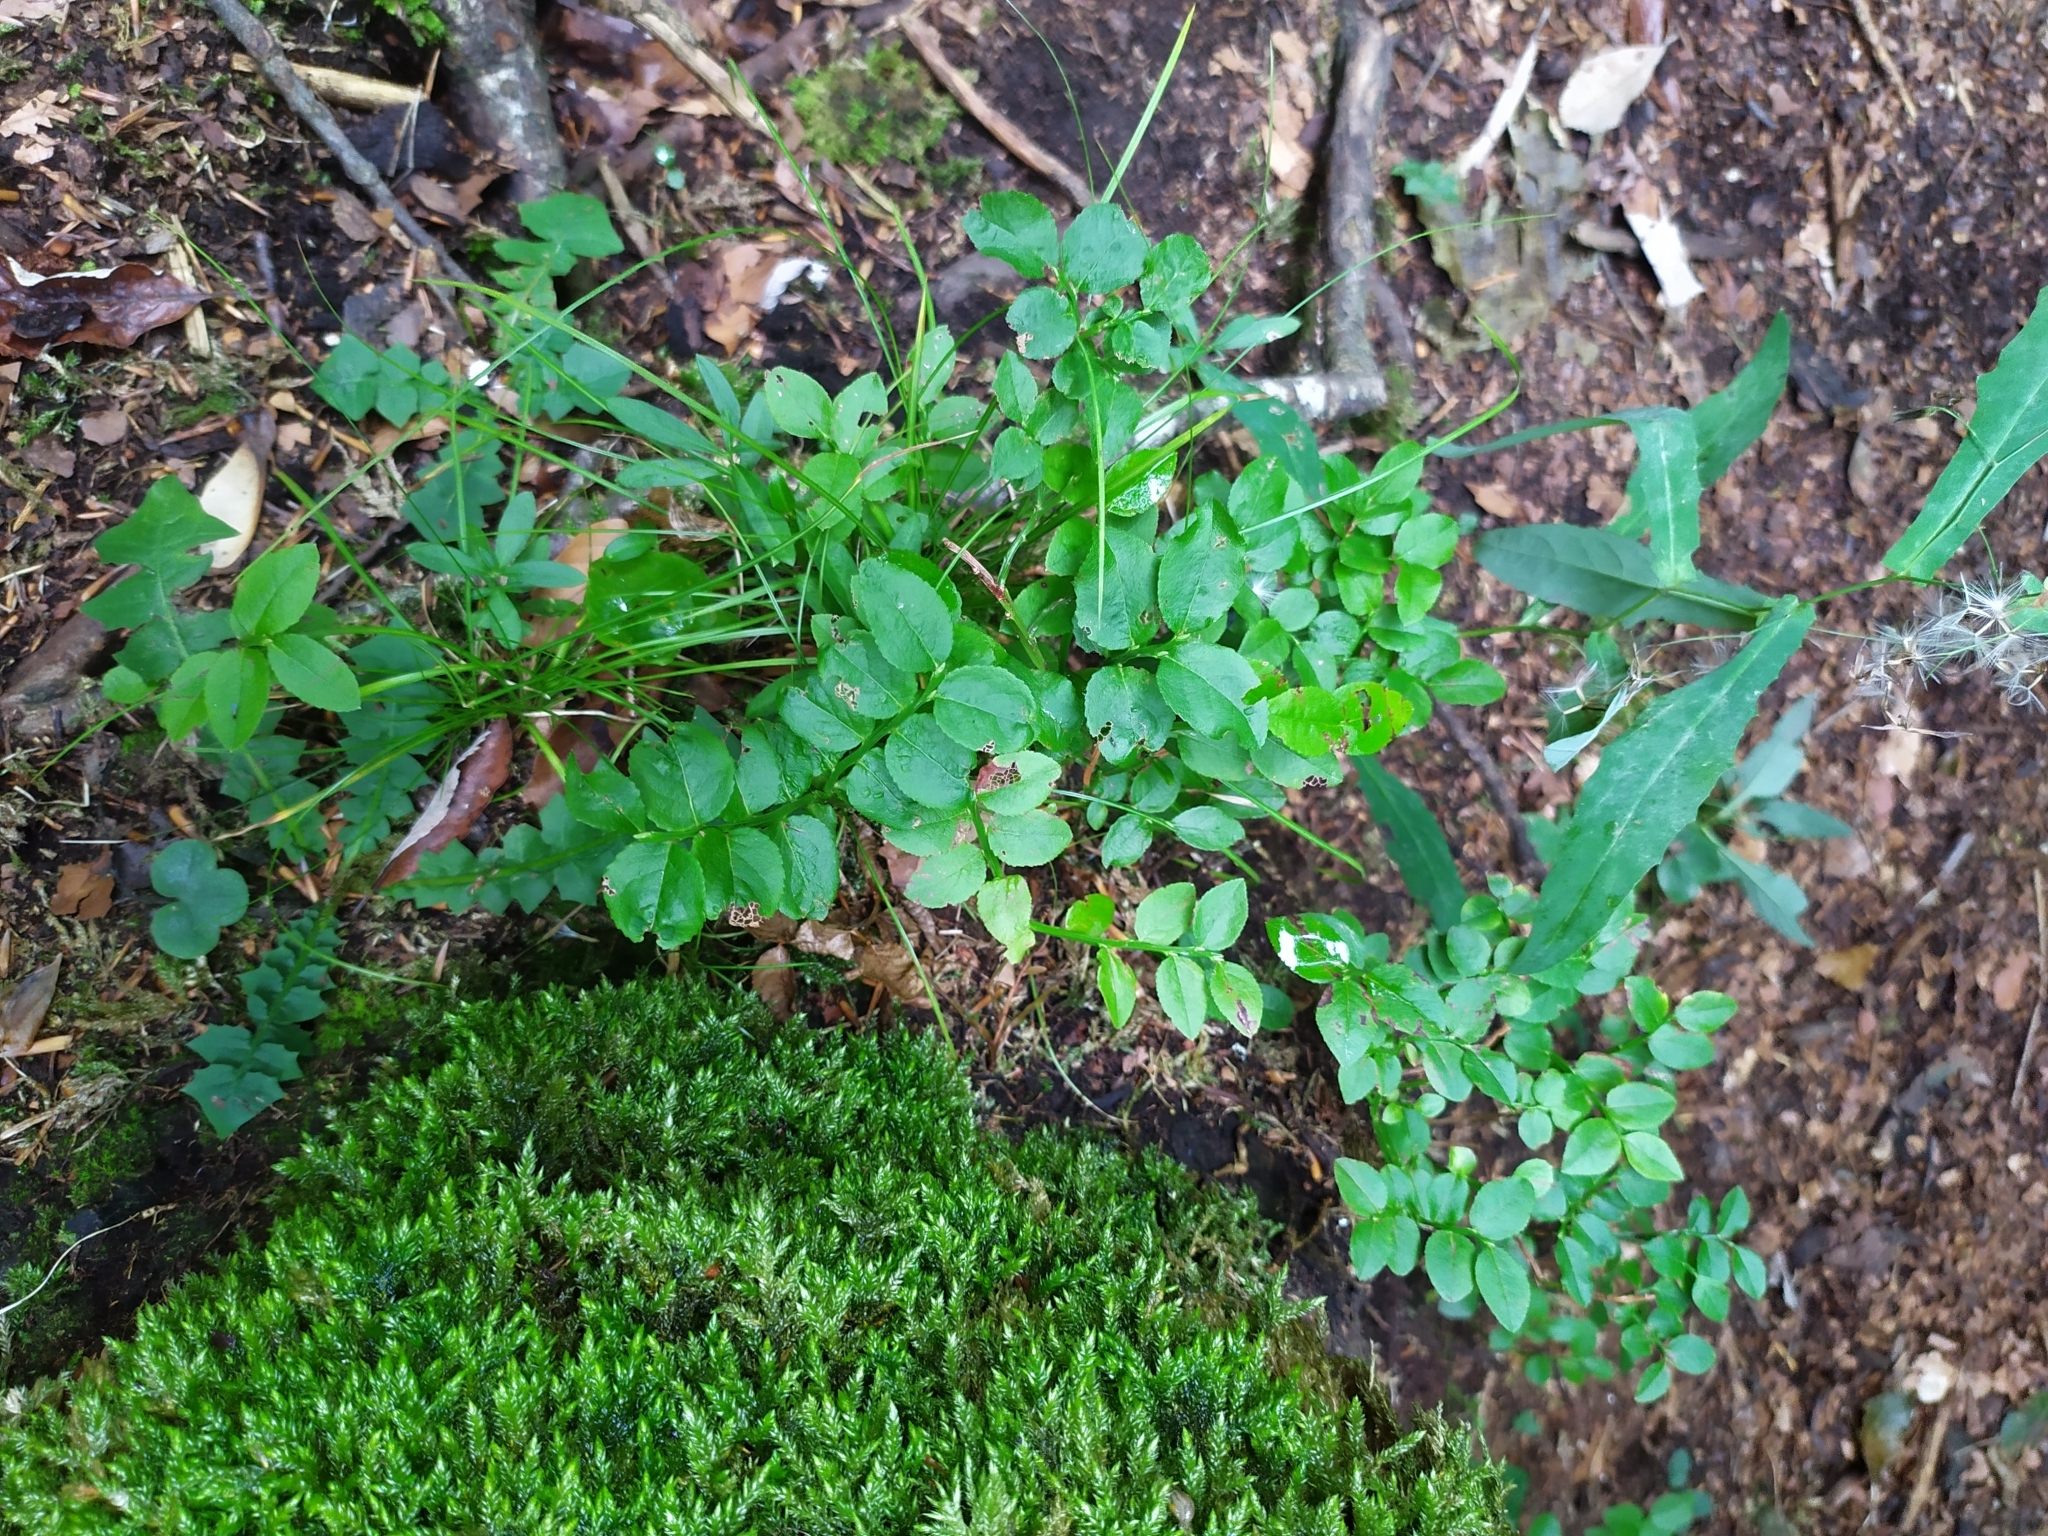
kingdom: Plantae
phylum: Tracheophyta
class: Magnoliopsida
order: Ericales
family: Ericaceae
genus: Vaccinium
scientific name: Vaccinium myrtillus
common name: Bilberry
